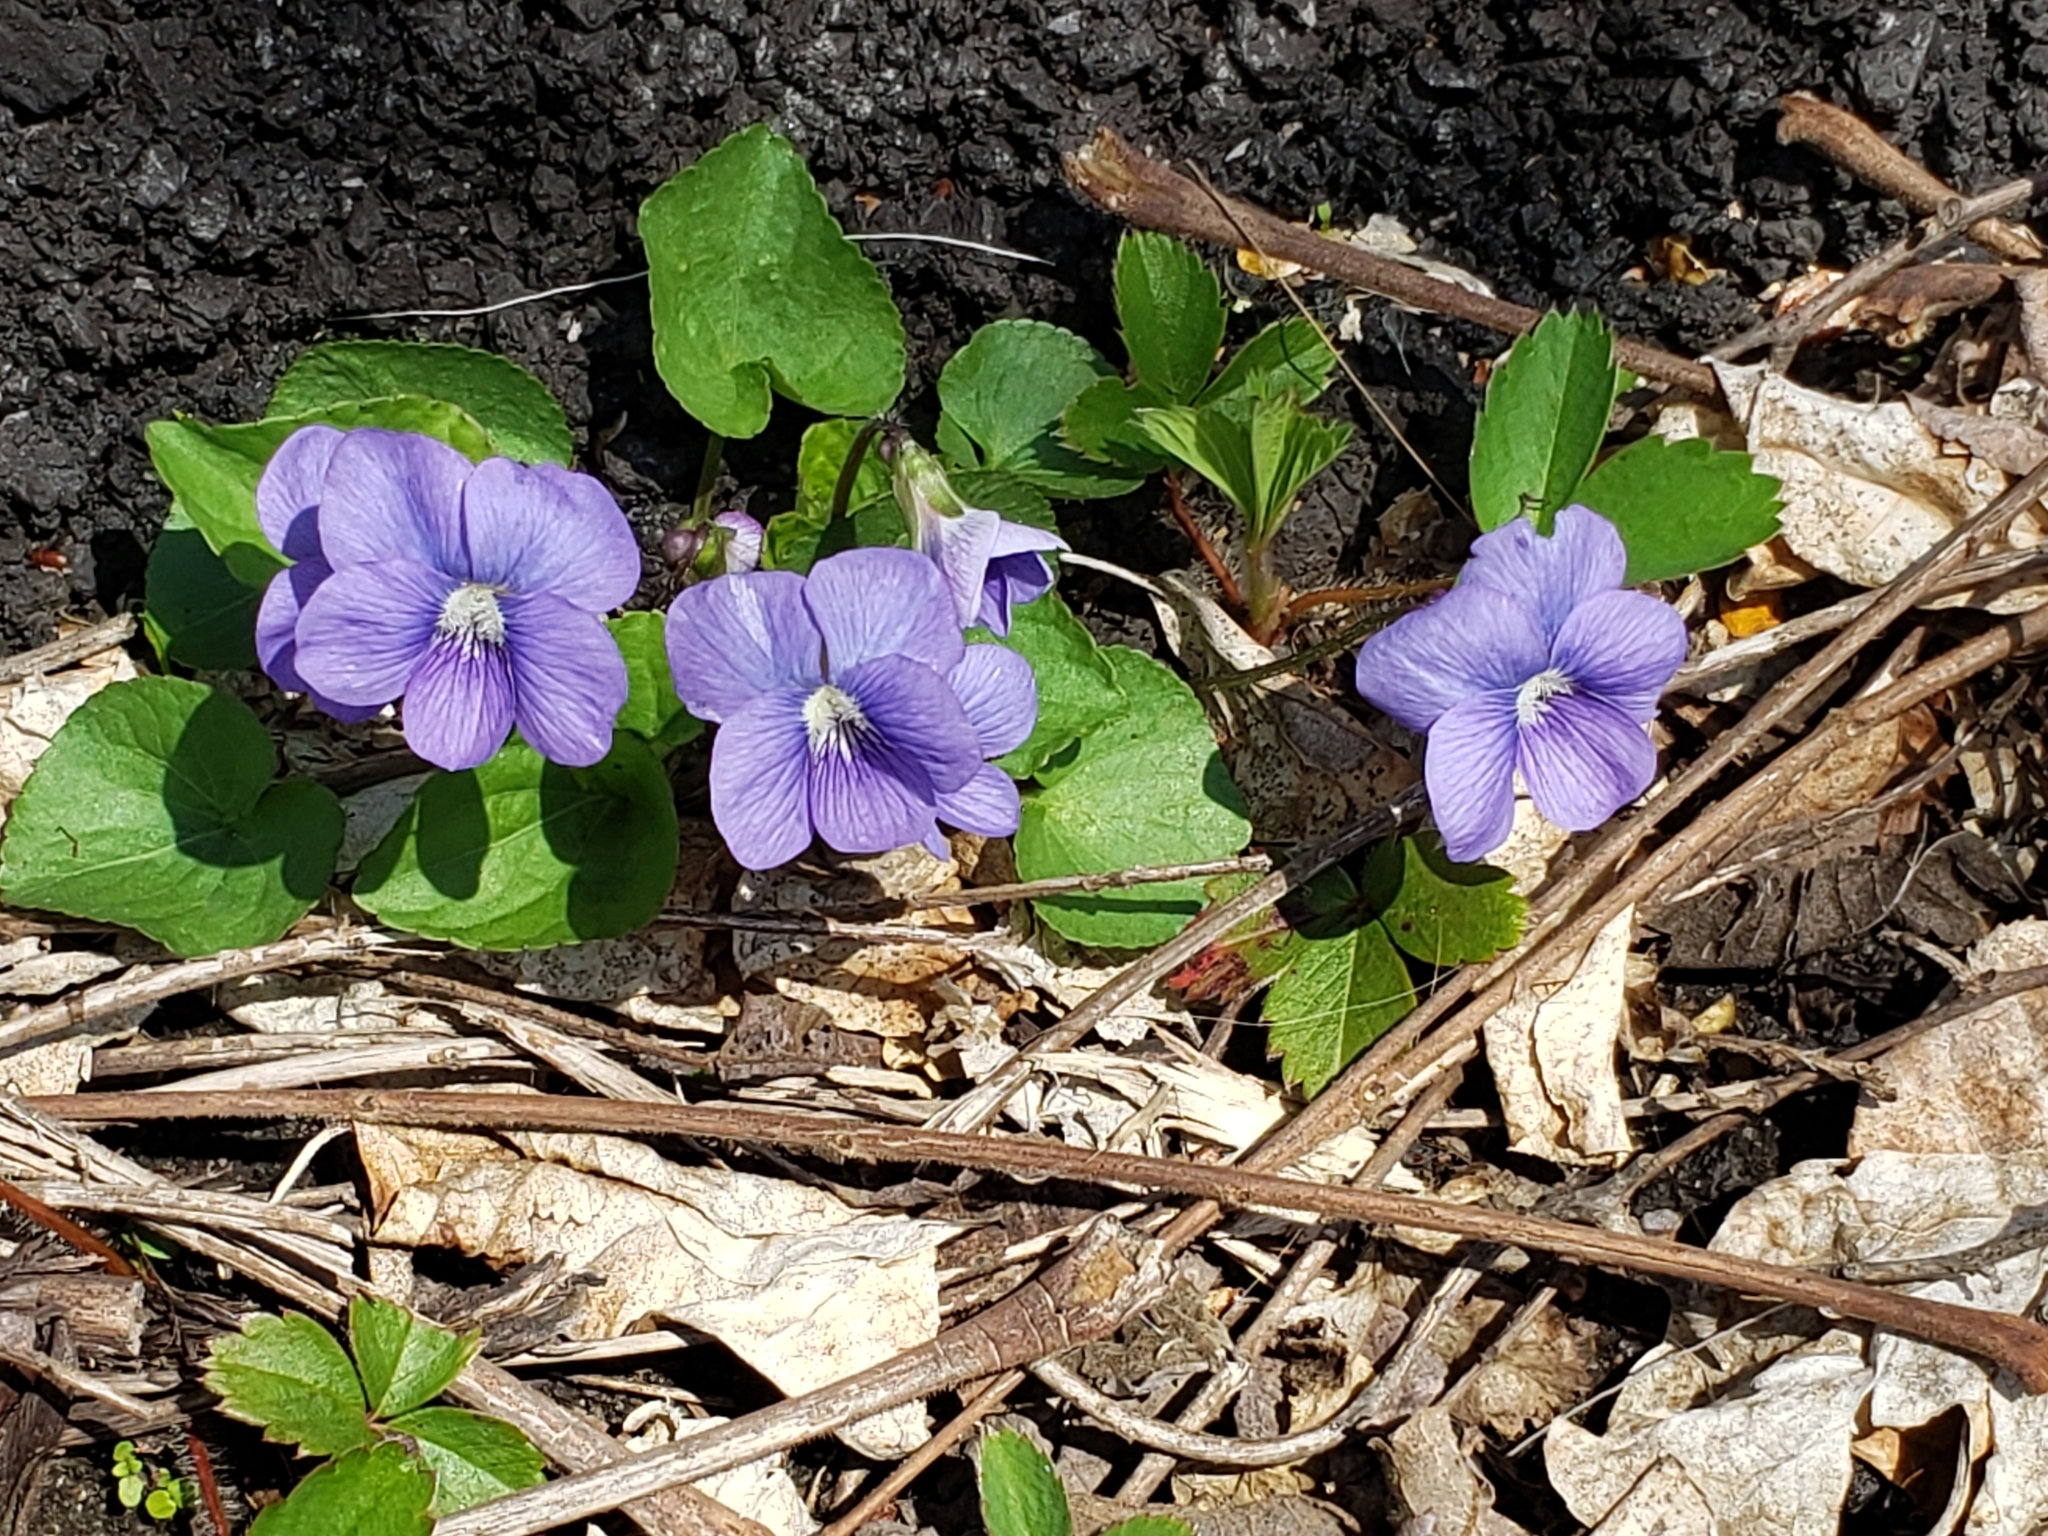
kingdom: Plantae
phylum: Tracheophyta
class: Magnoliopsida
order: Malpighiales
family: Violaceae
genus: Viola
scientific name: Viola sororia
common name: Dooryard violet
